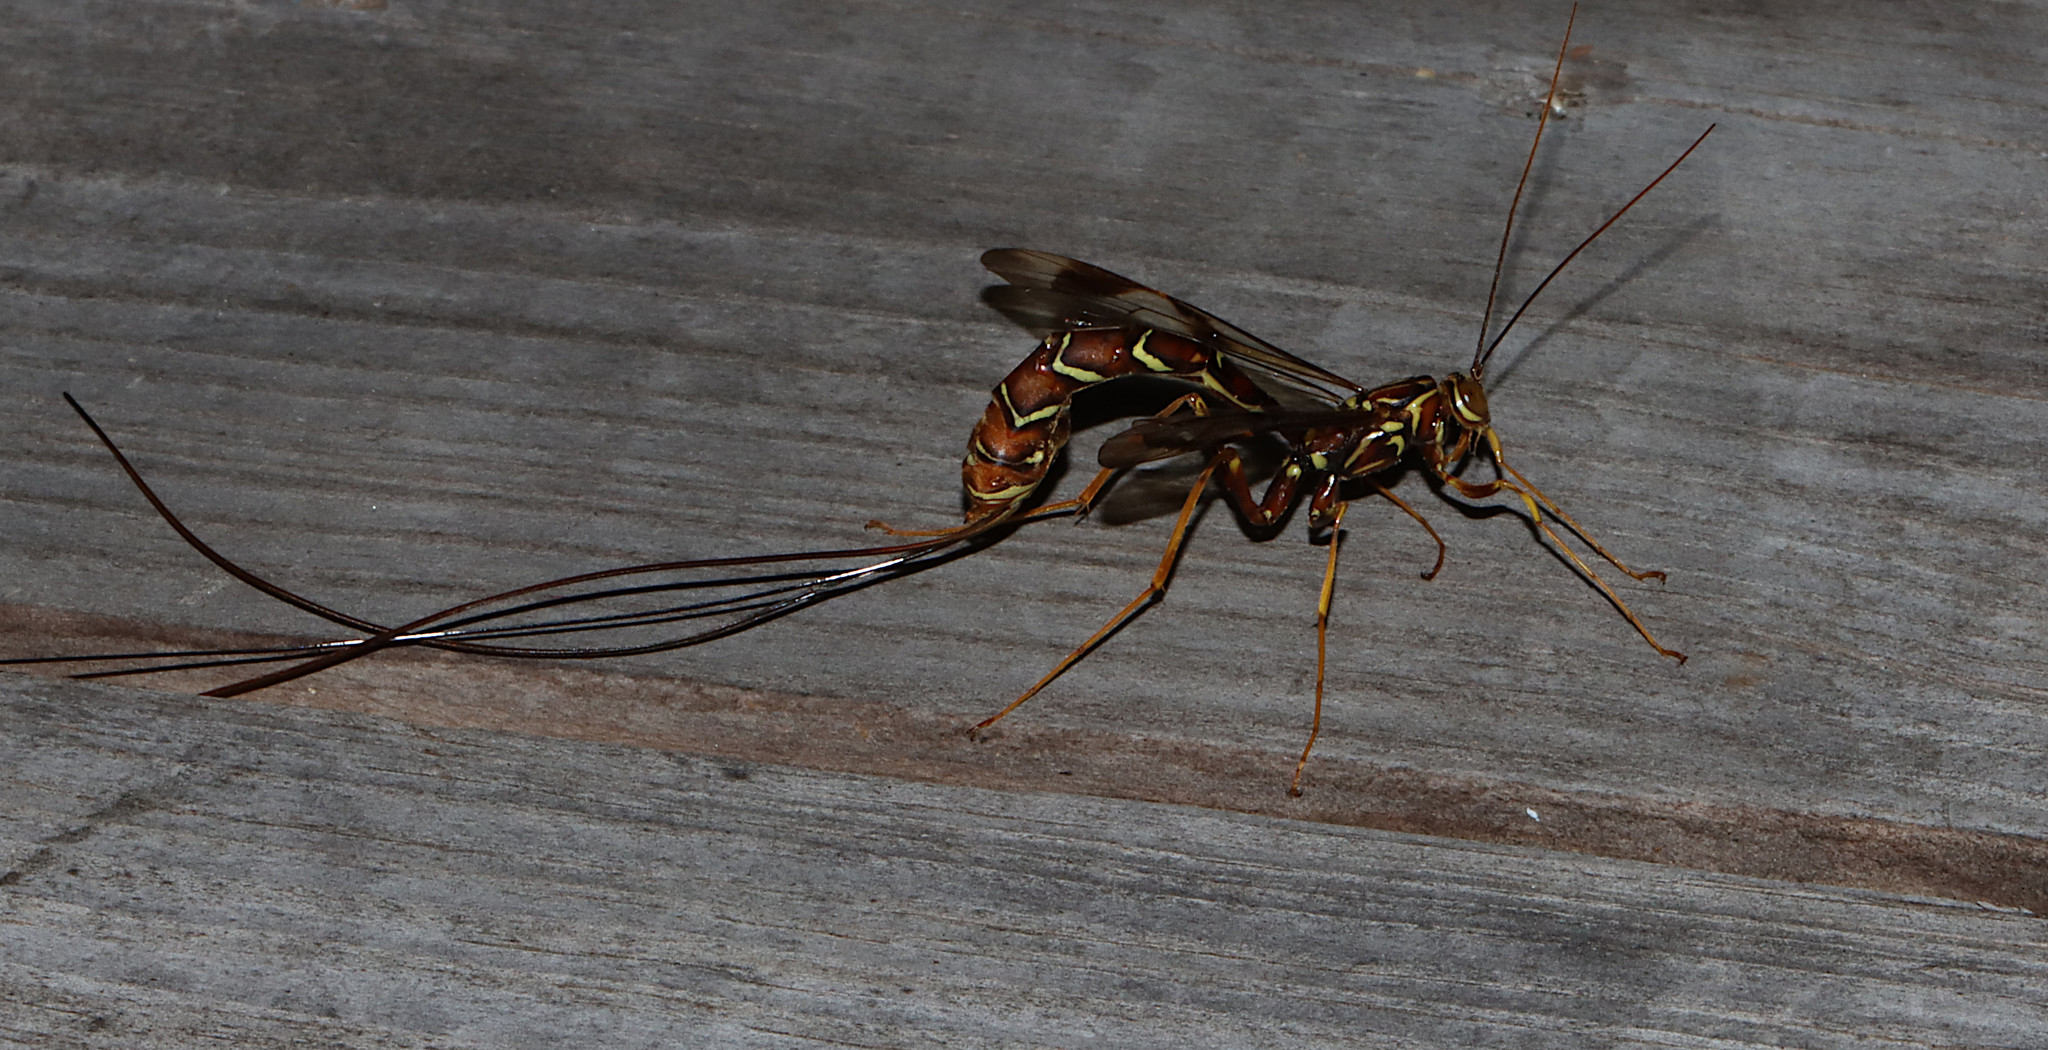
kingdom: Animalia
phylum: Arthropoda
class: Insecta
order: Hymenoptera
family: Ichneumonidae
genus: Megarhyssa
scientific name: Megarhyssa macrura
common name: Long-tailed giant ichneumonid wasp
